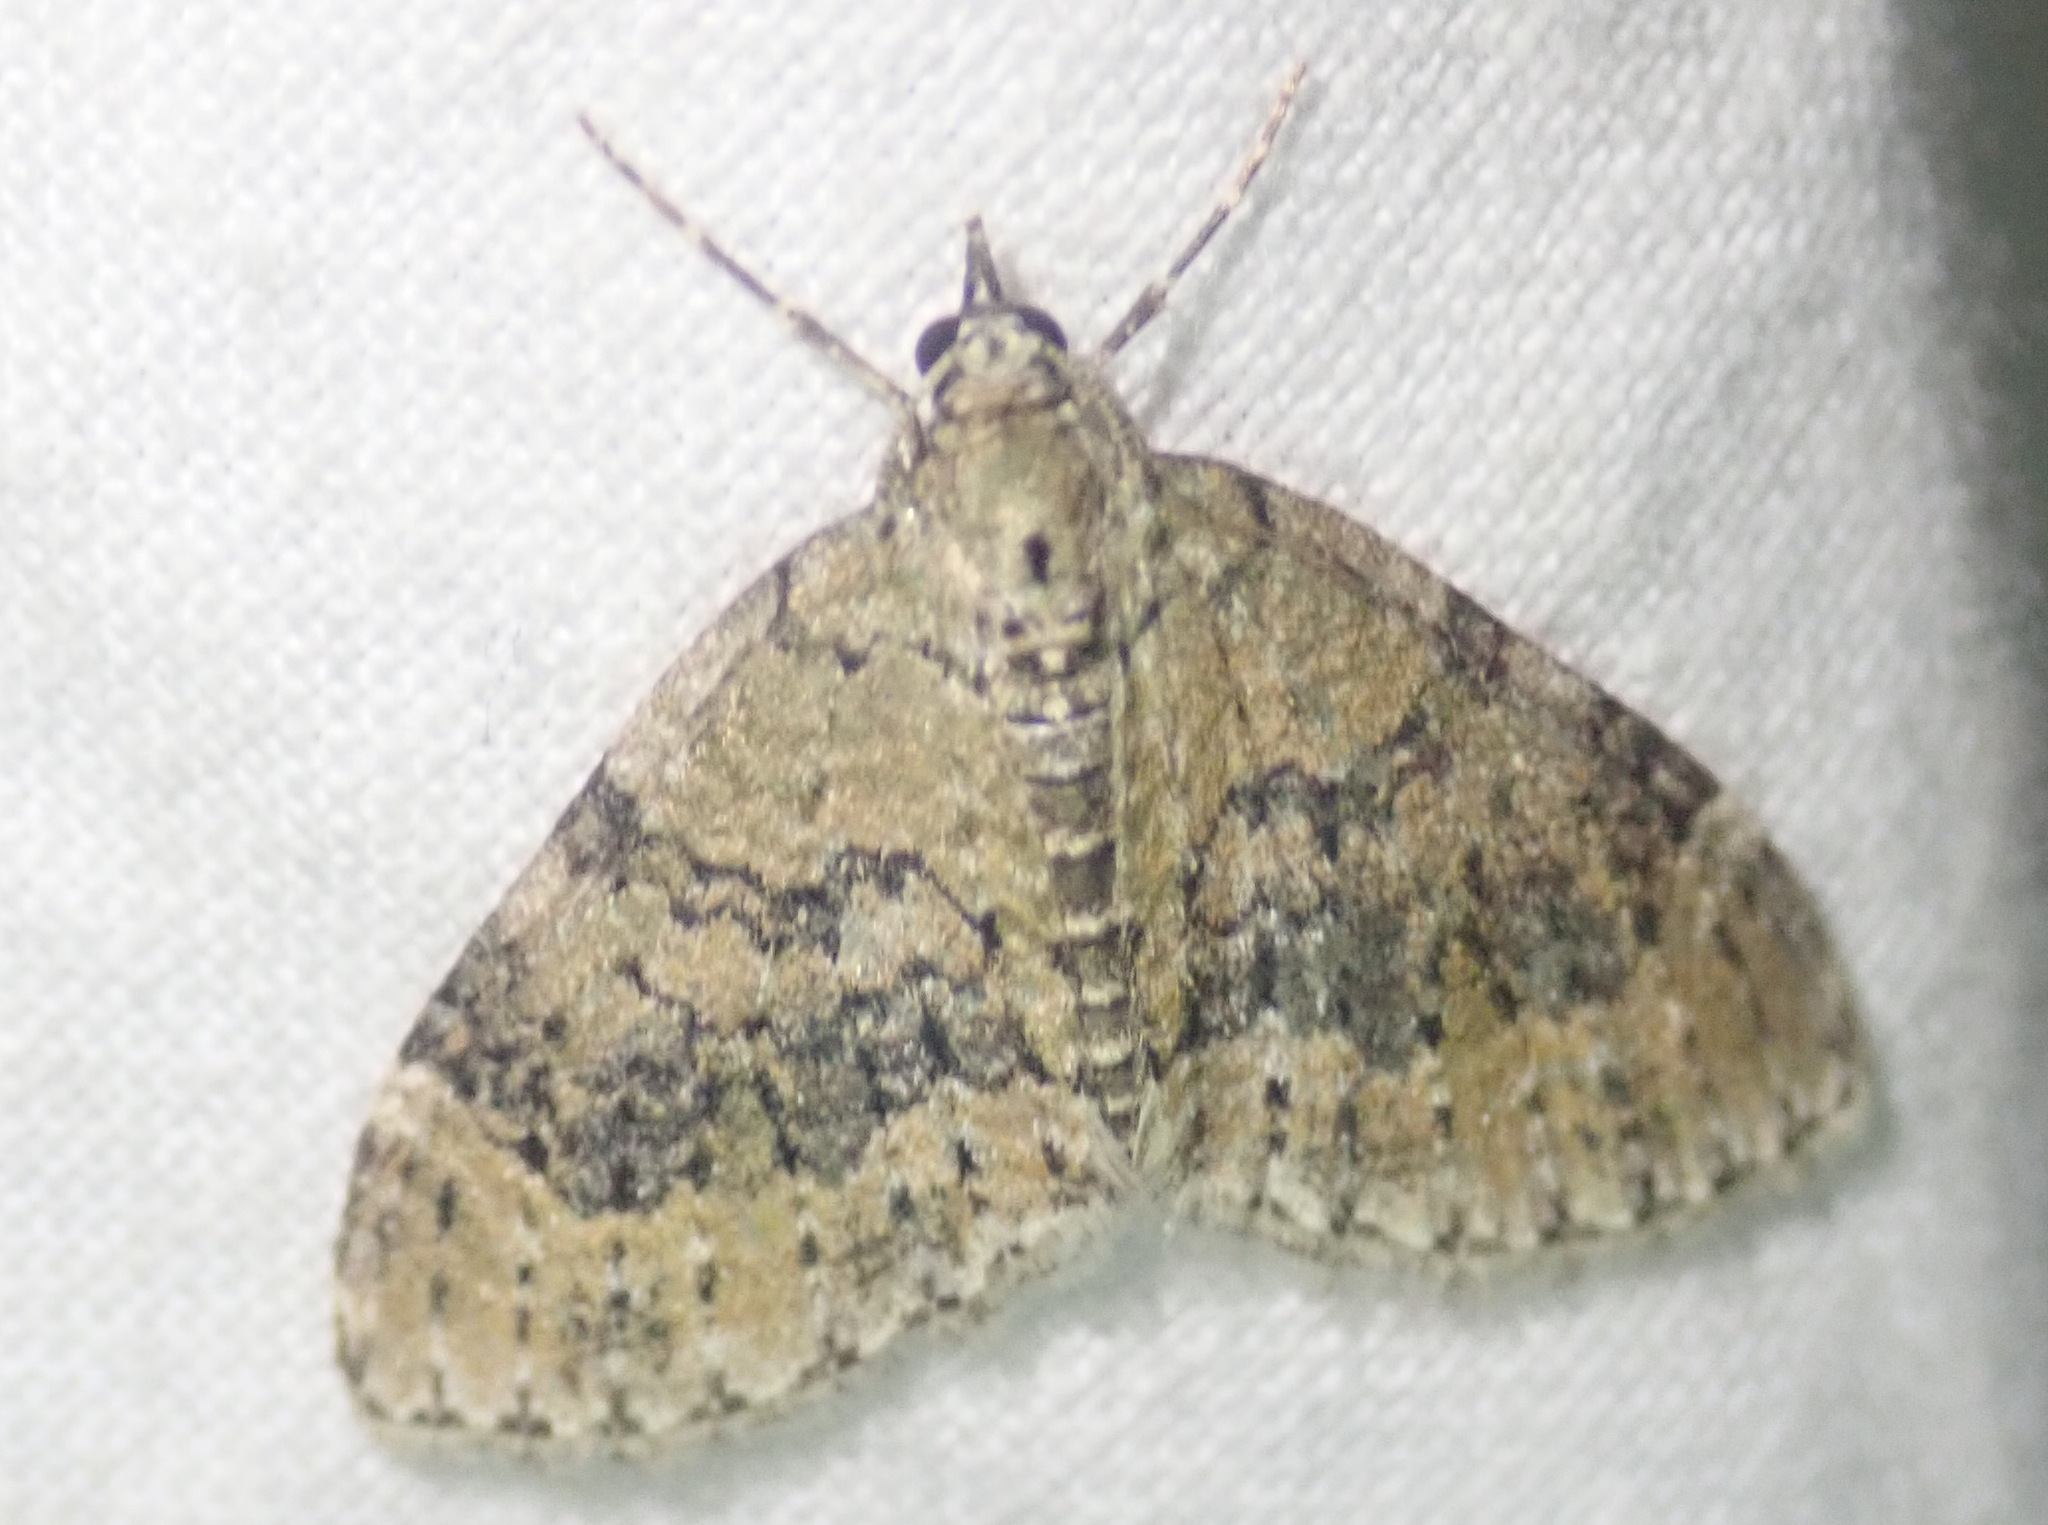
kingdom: Animalia
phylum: Arthropoda
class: Insecta
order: Lepidoptera
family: Geometridae
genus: Acasis
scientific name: Acasis viretata
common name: Yellow-barred brindle
